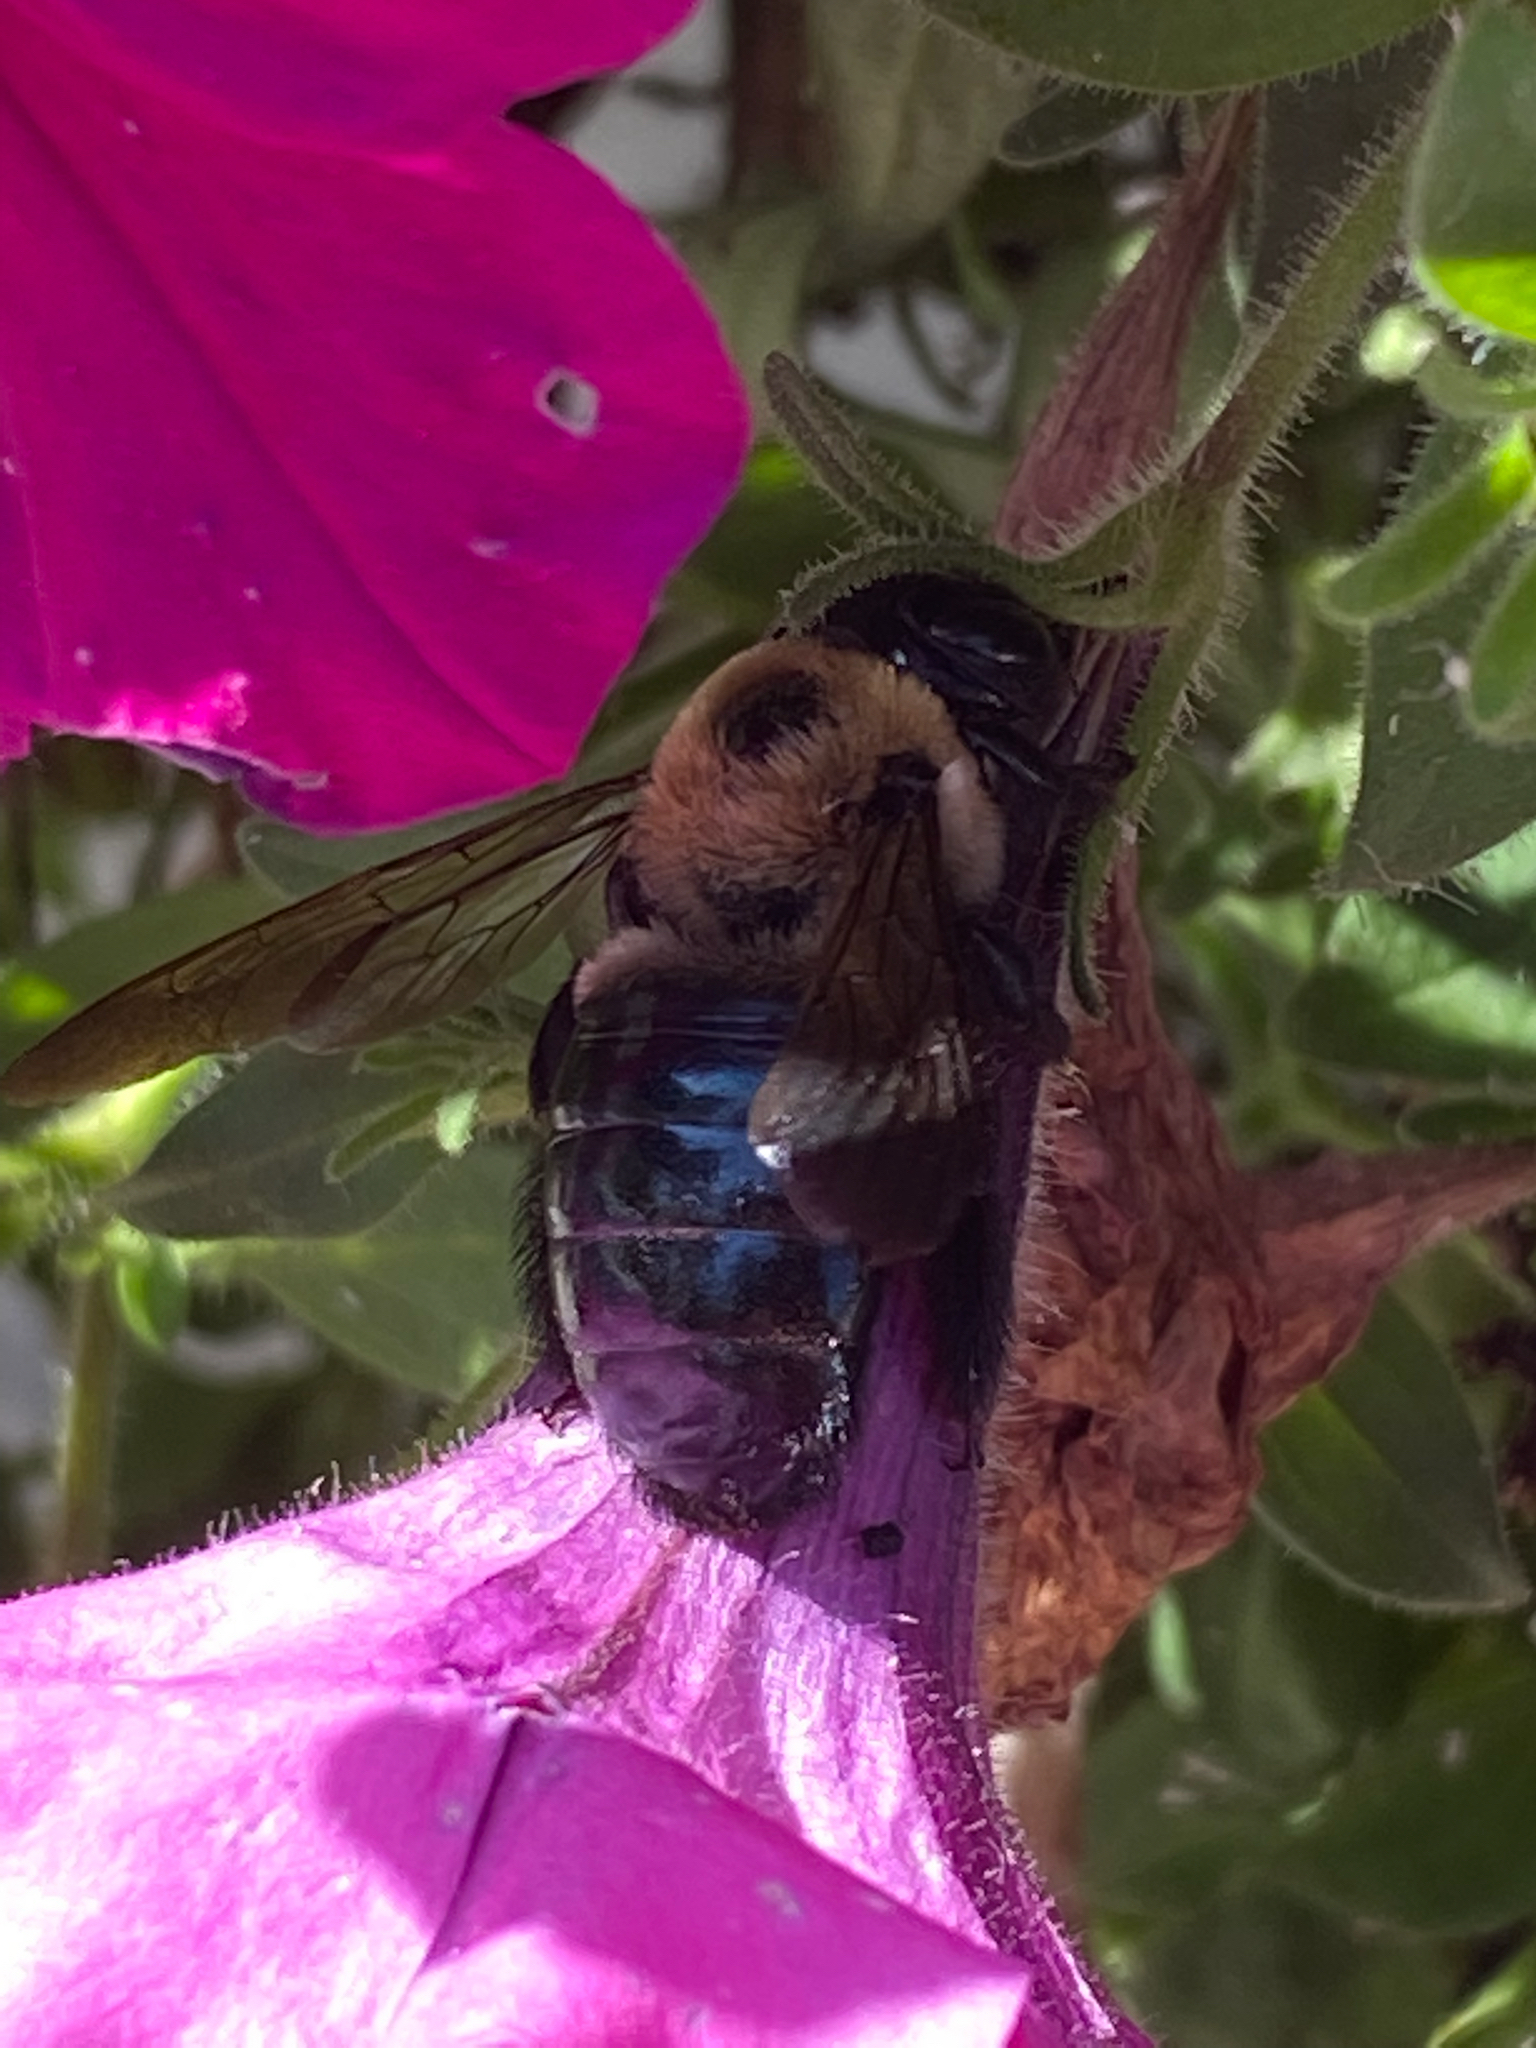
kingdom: Animalia
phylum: Arthropoda
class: Insecta
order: Hymenoptera
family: Apidae
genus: Xylocopa
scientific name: Xylocopa virginica
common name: Carpenter bee
